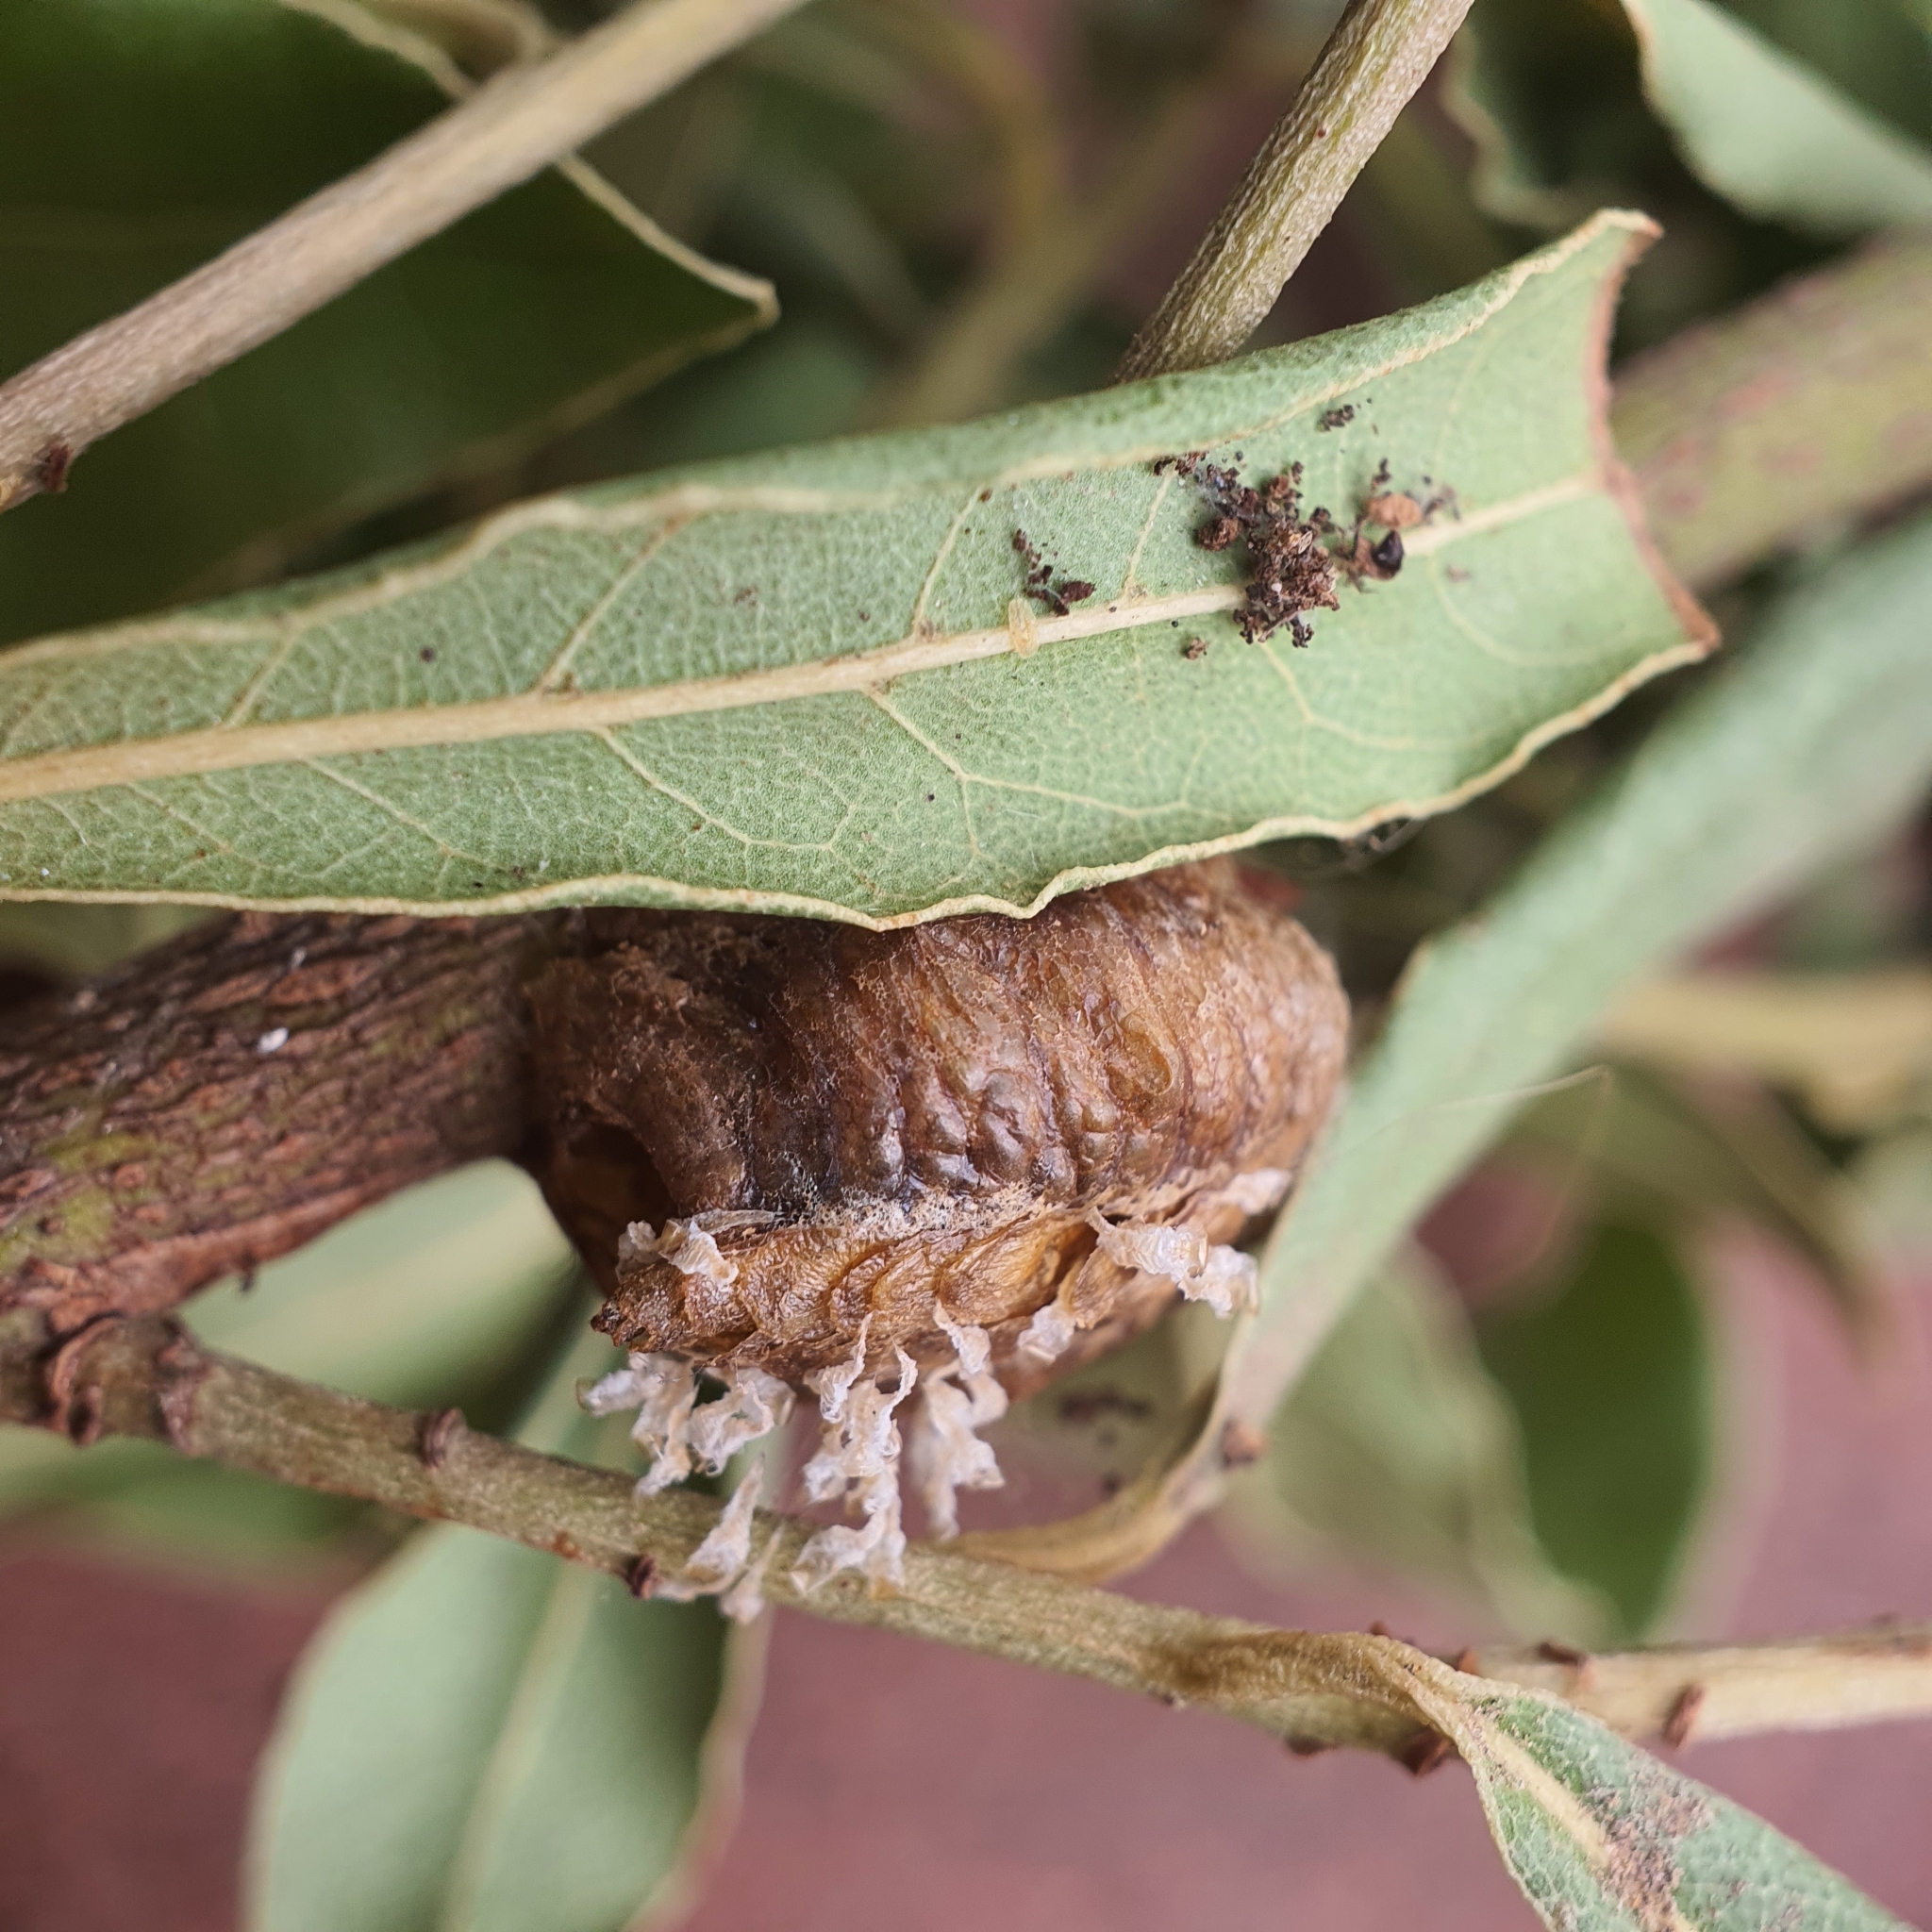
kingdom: Animalia
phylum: Arthropoda
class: Insecta
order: Mantodea
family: Mantidae
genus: Pseudomantis
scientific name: Pseudomantis albofimbriata
